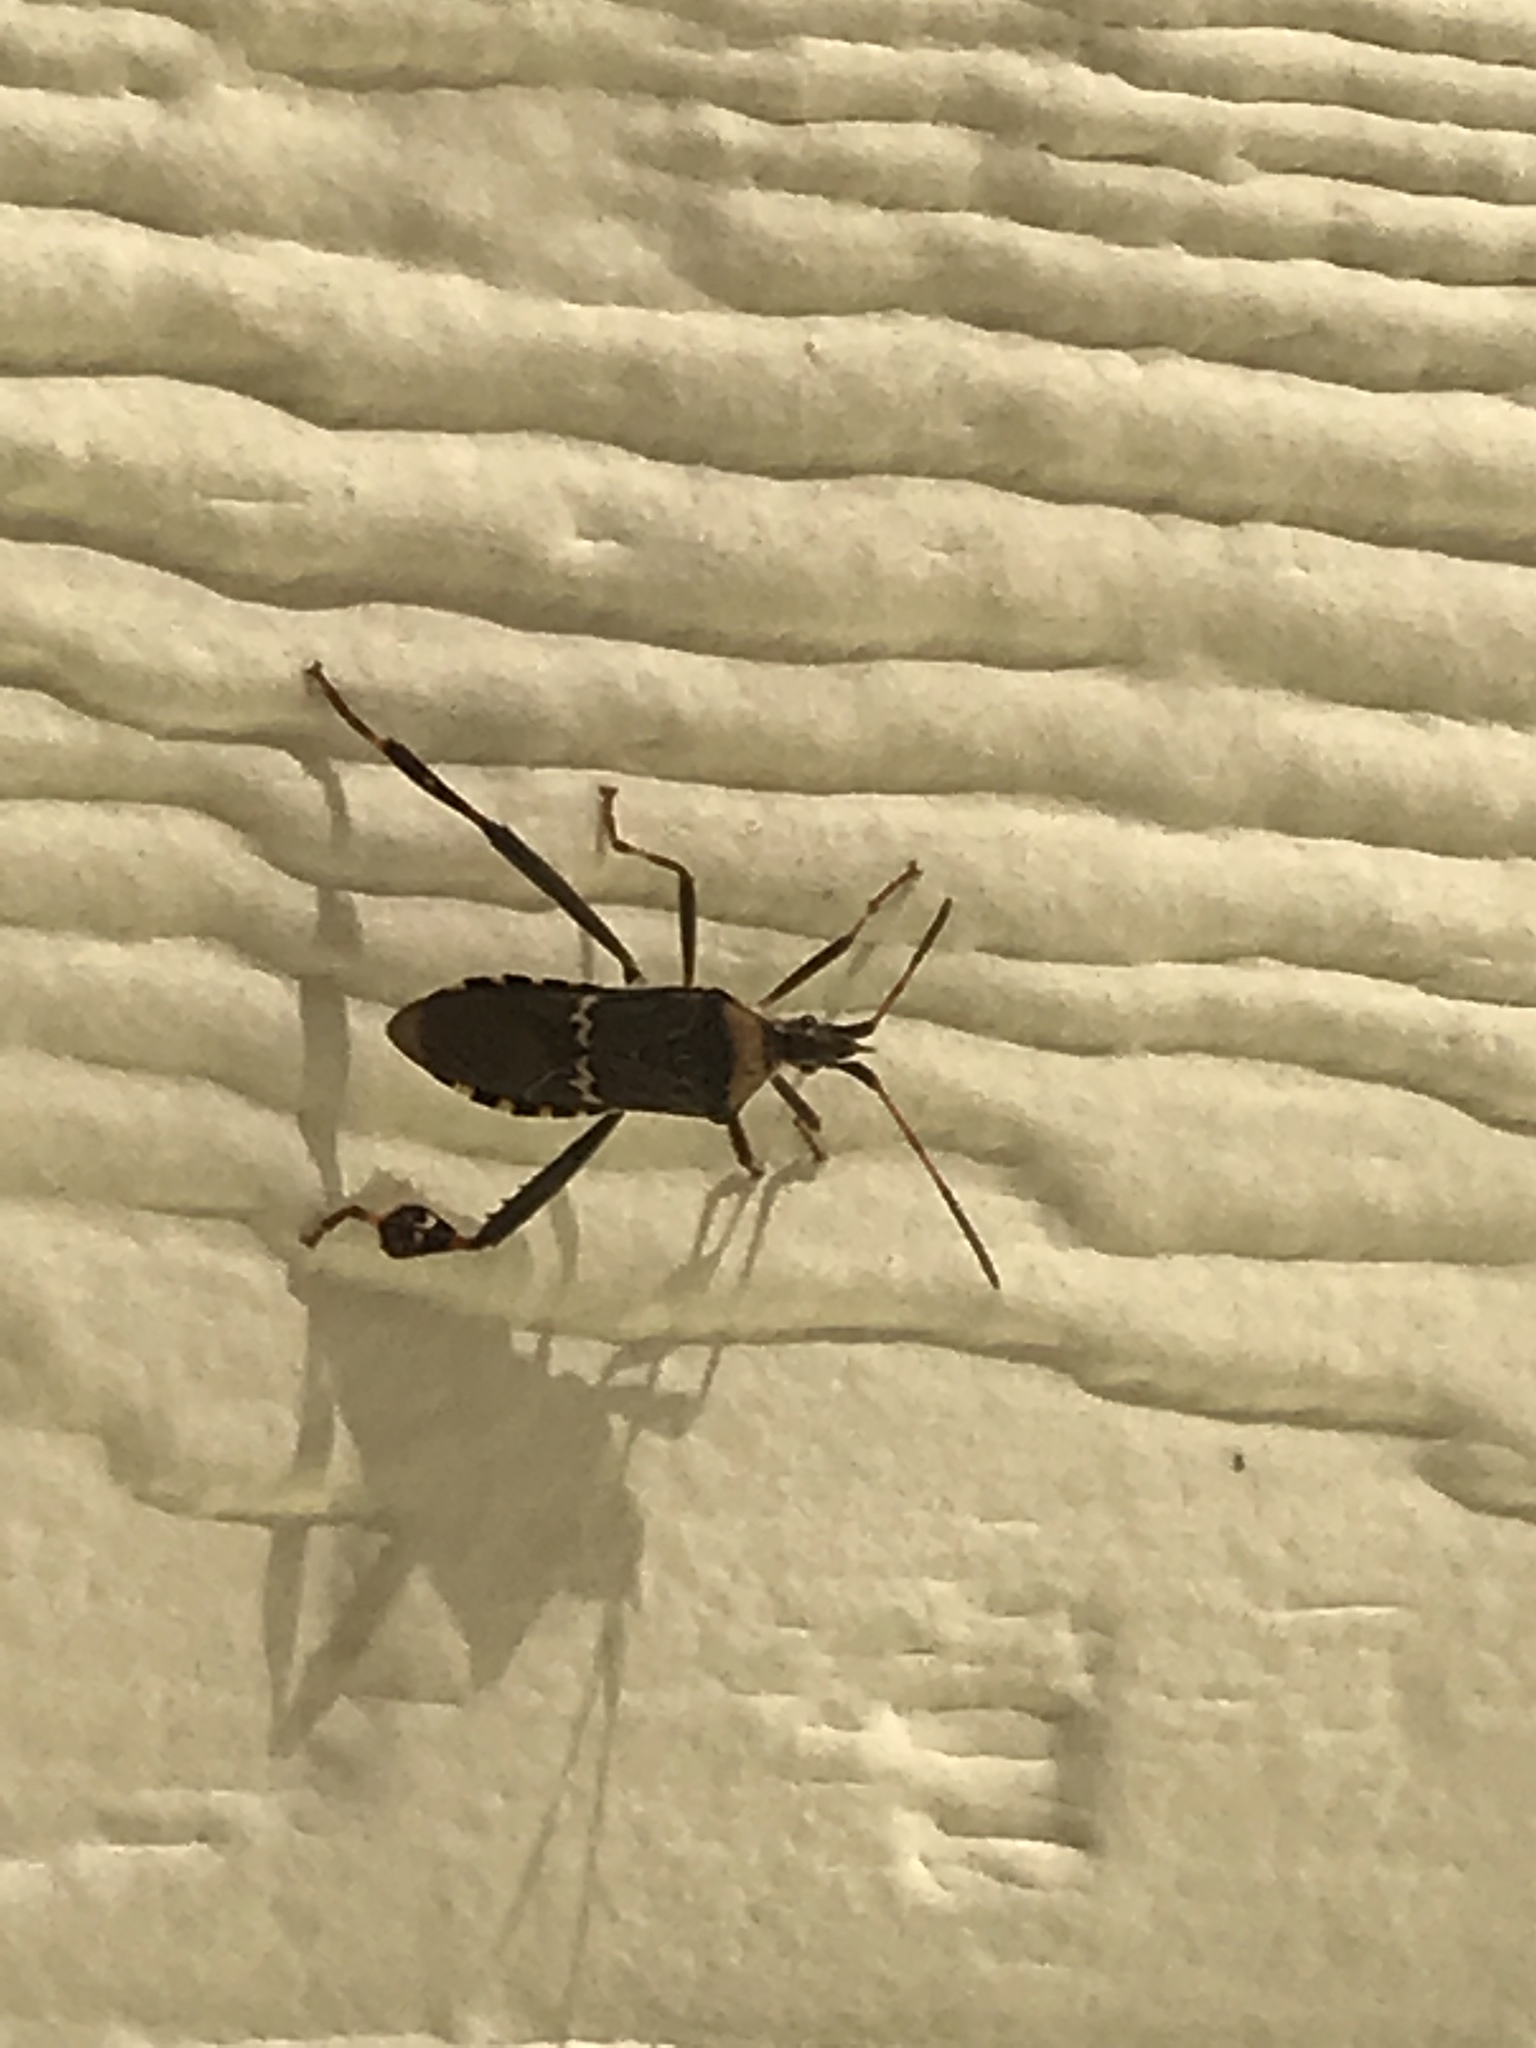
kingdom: Animalia
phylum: Arthropoda
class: Insecta
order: Hemiptera
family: Coreidae
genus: Leptoglossus
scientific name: Leptoglossus clypealis
